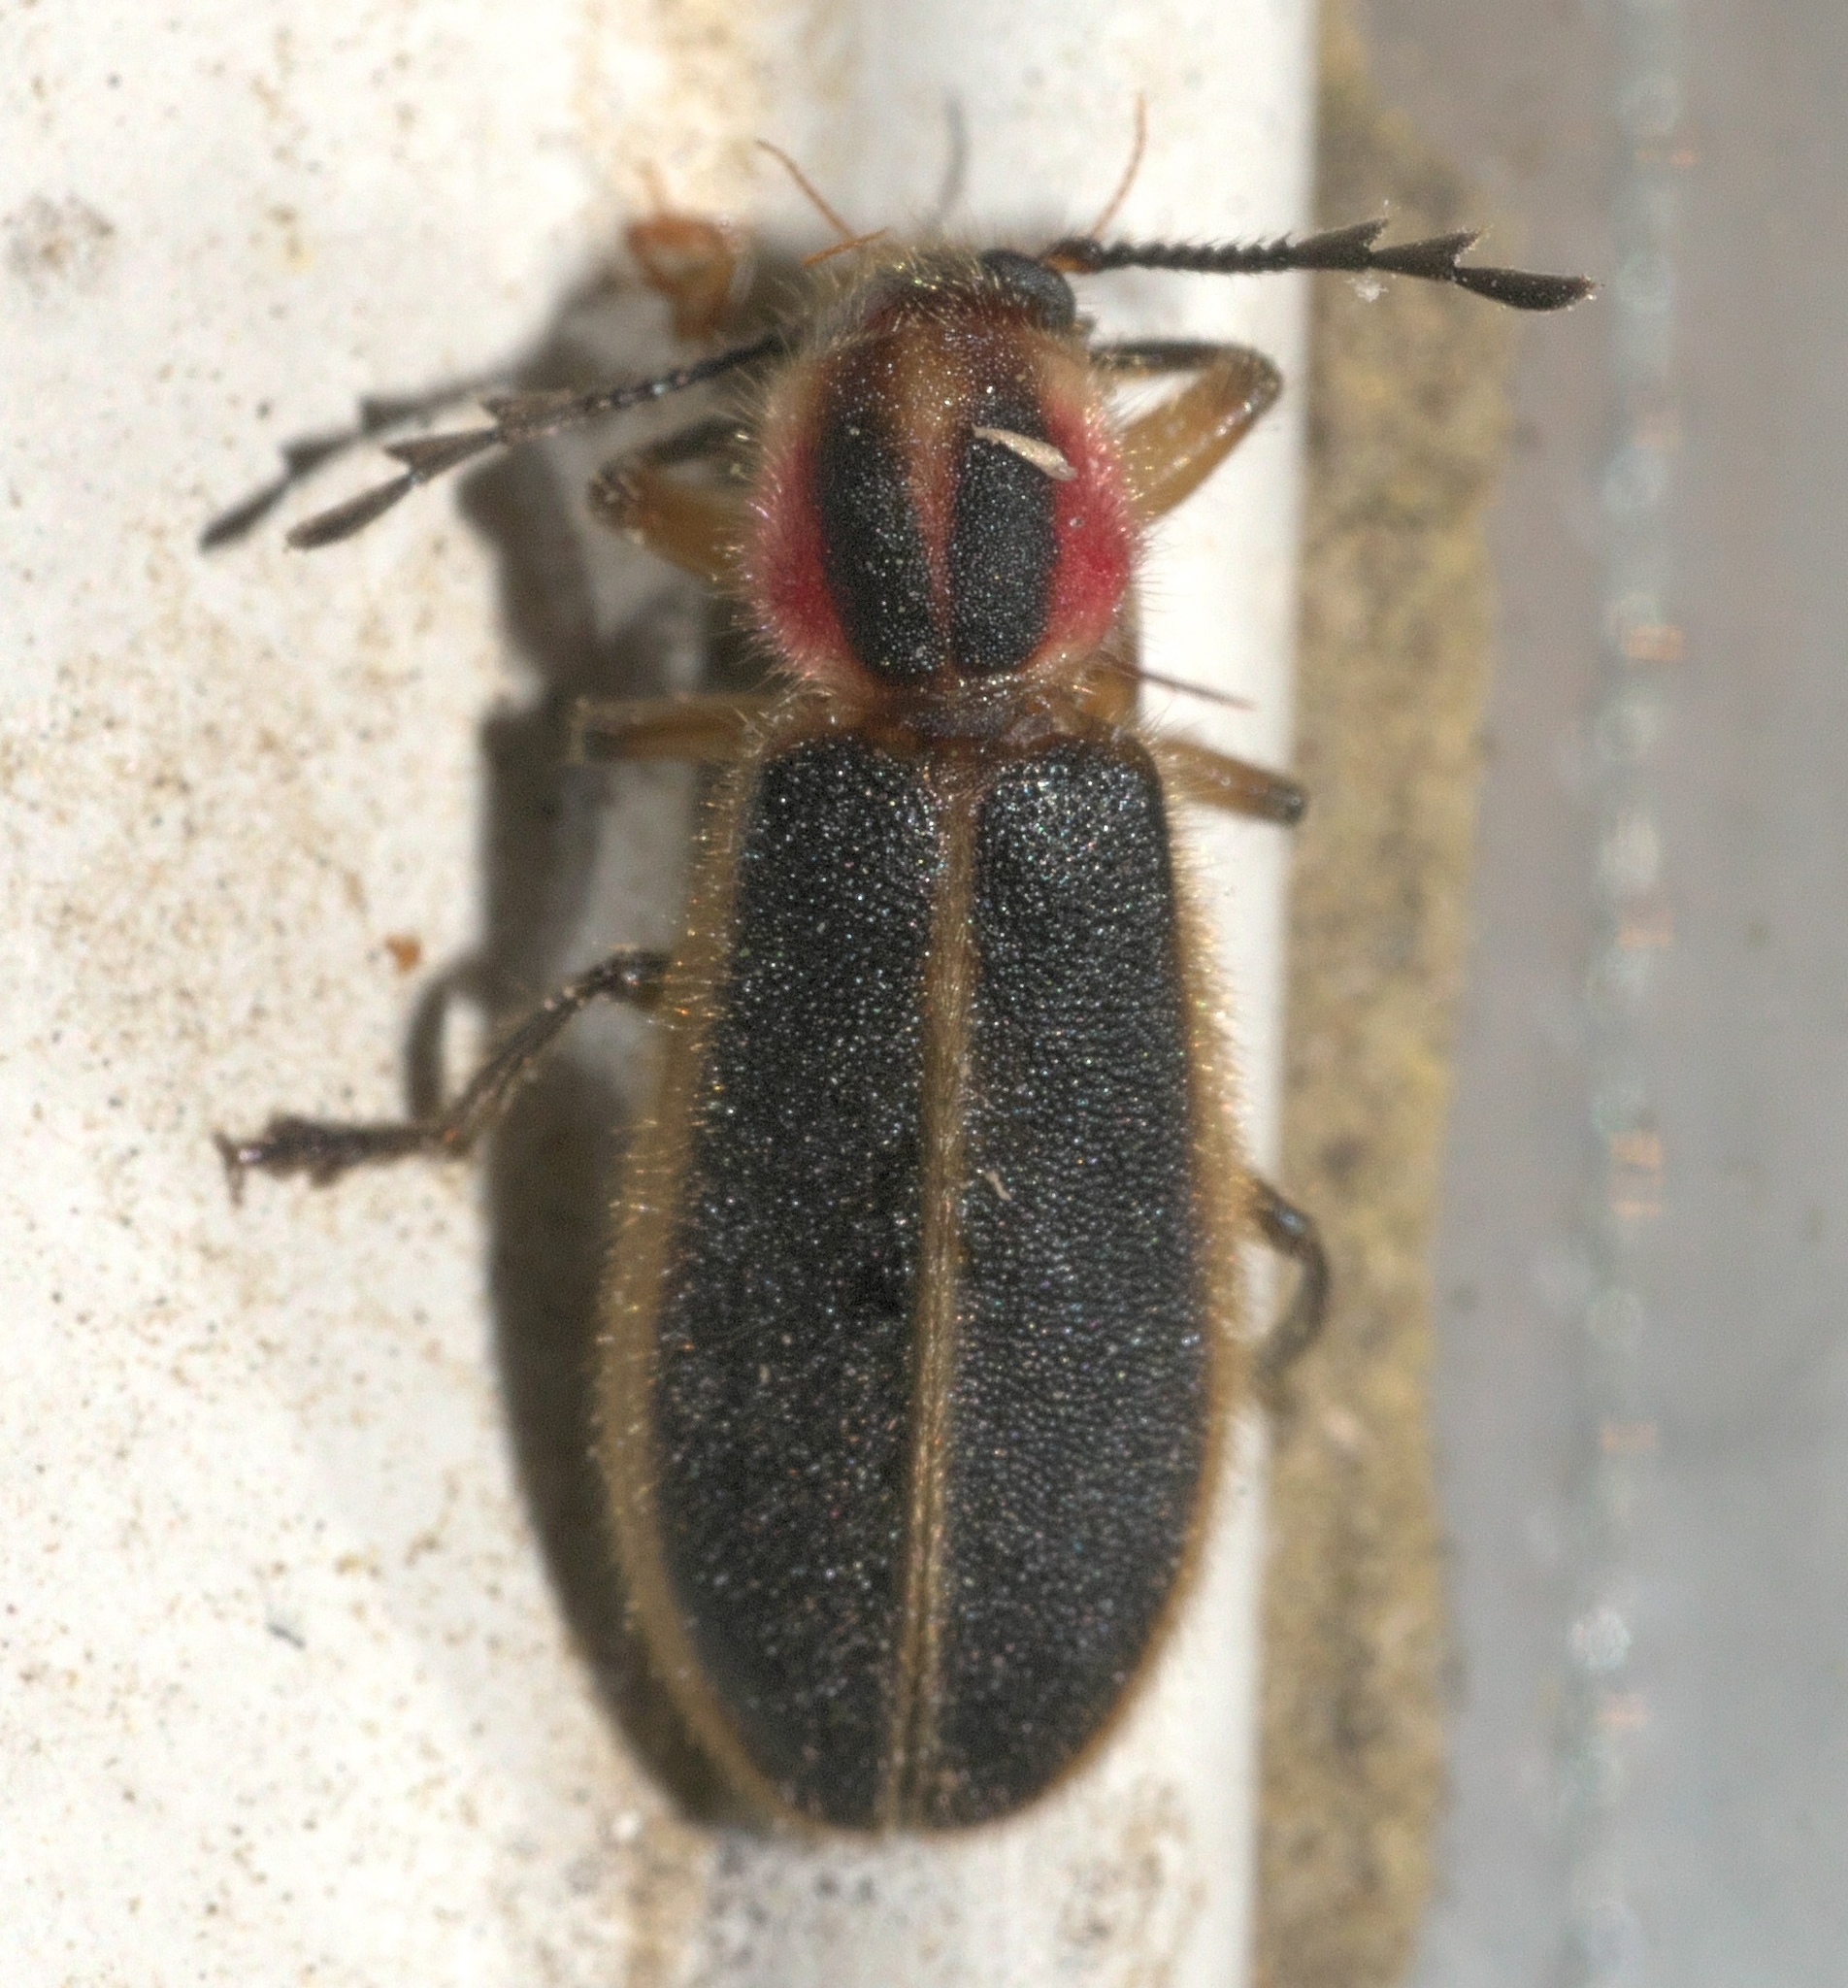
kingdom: Animalia
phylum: Arthropoda
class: Insecta
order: Coleoptera
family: Cleridae
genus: Chariessa
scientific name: Chariessa pilosa
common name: Pilose checkered beetle
